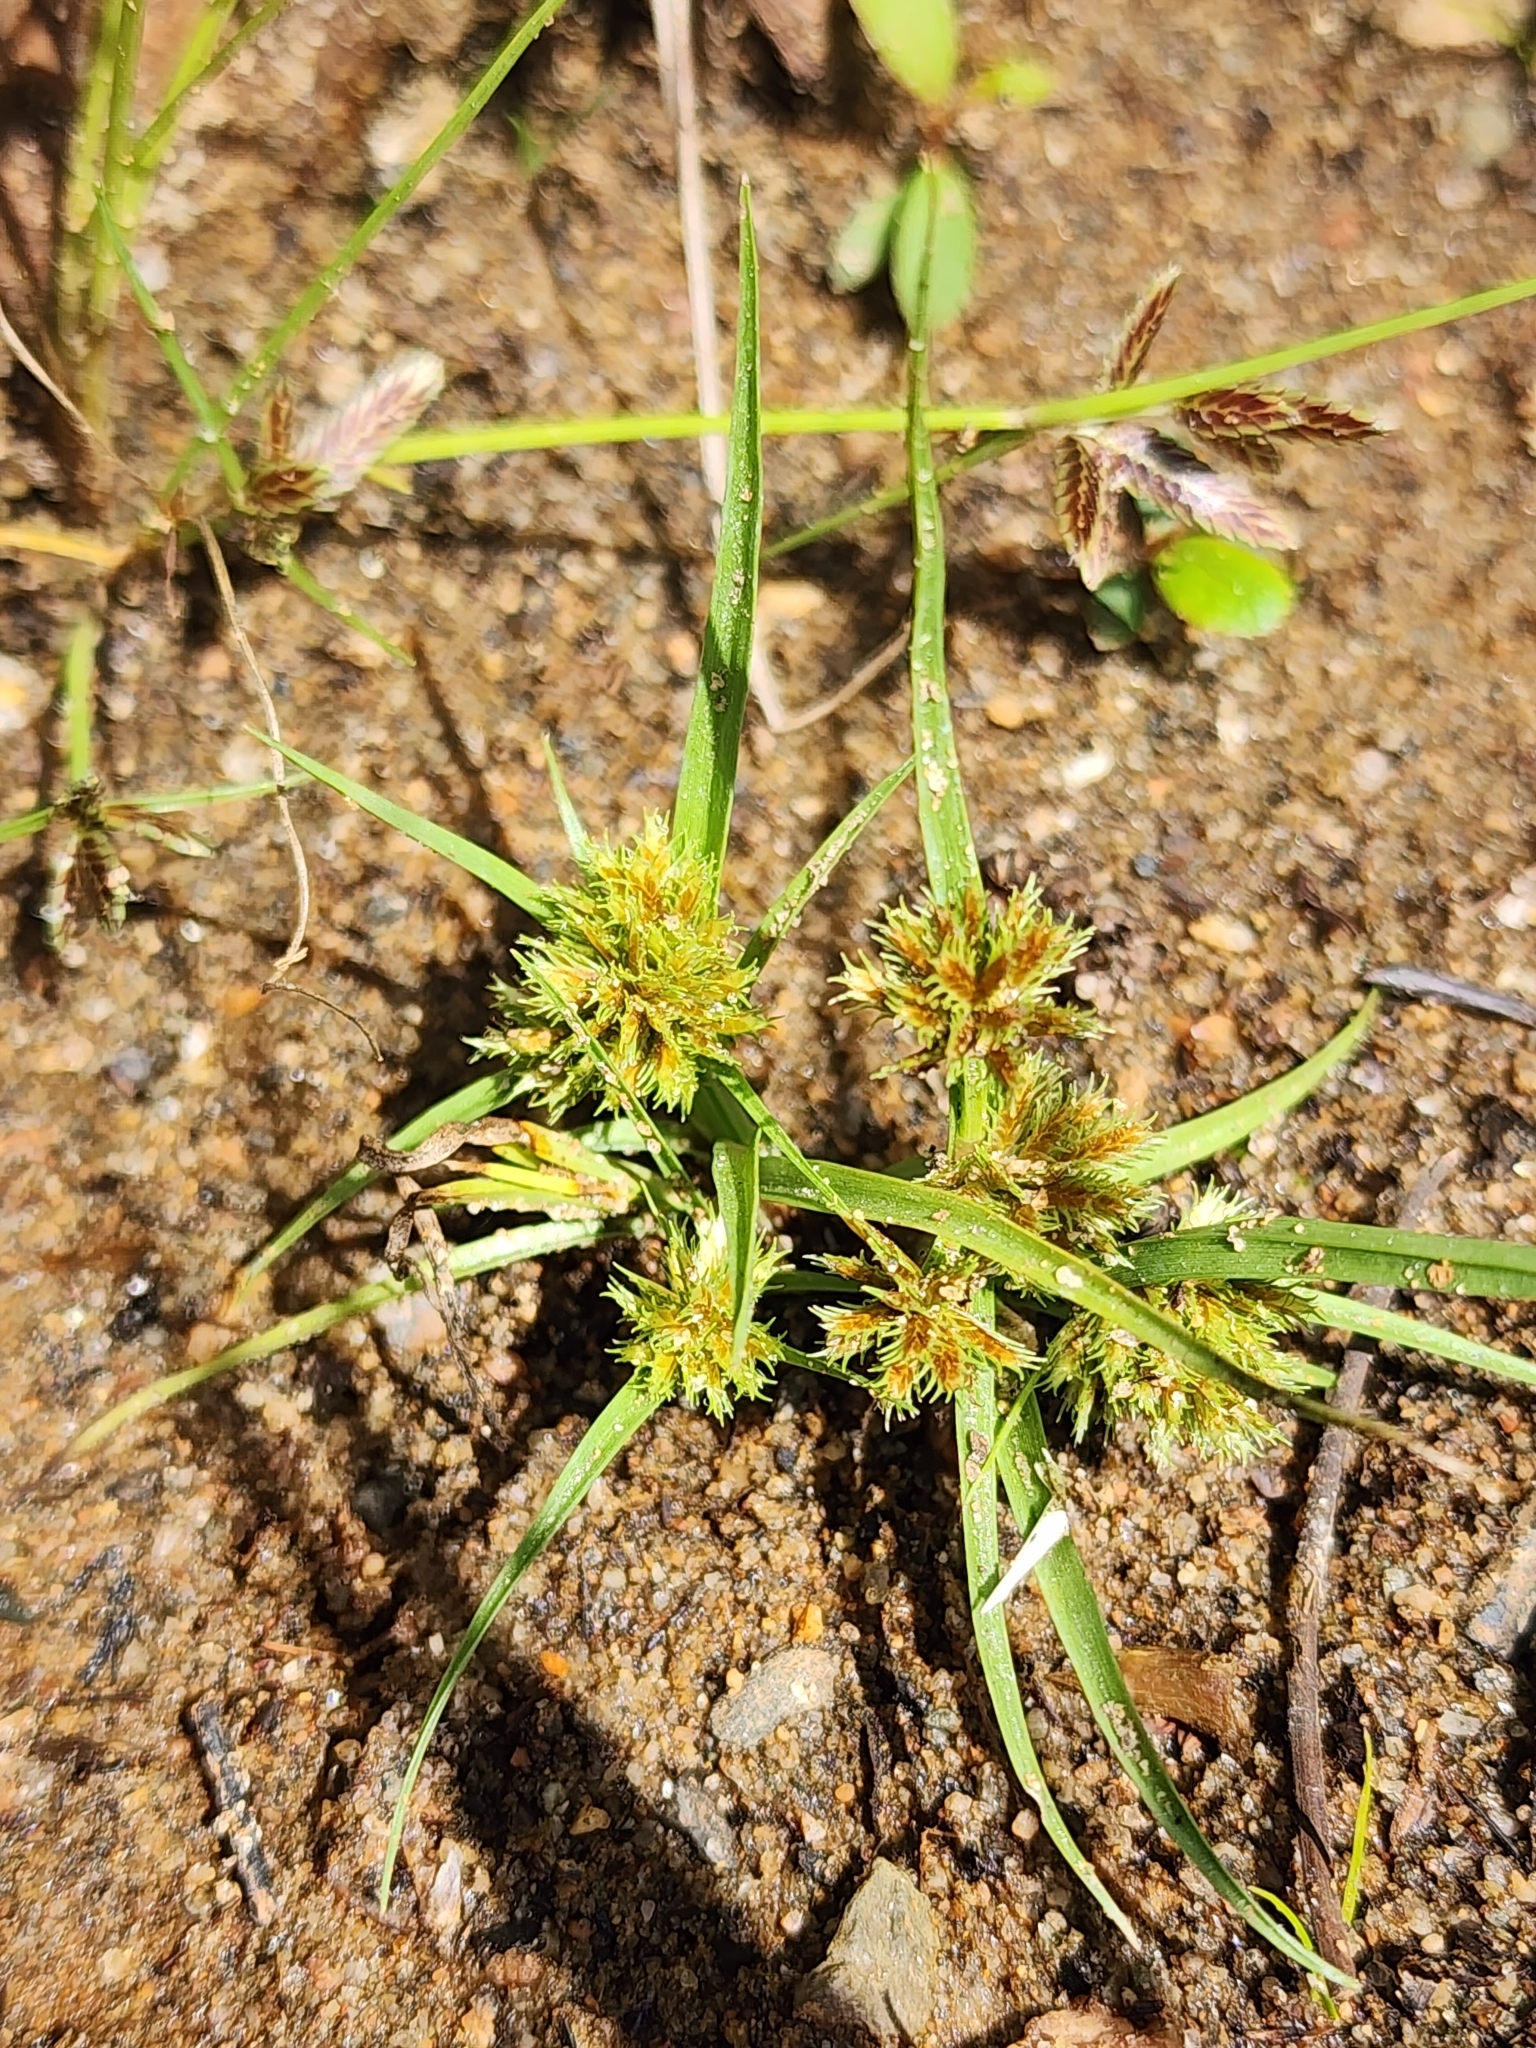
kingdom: Plantae
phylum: Tracheophyta
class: Liliopsida
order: Poales
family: Cyperaceae
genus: Cyperus
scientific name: Cyperus squarrosus
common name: Awned cyperus
